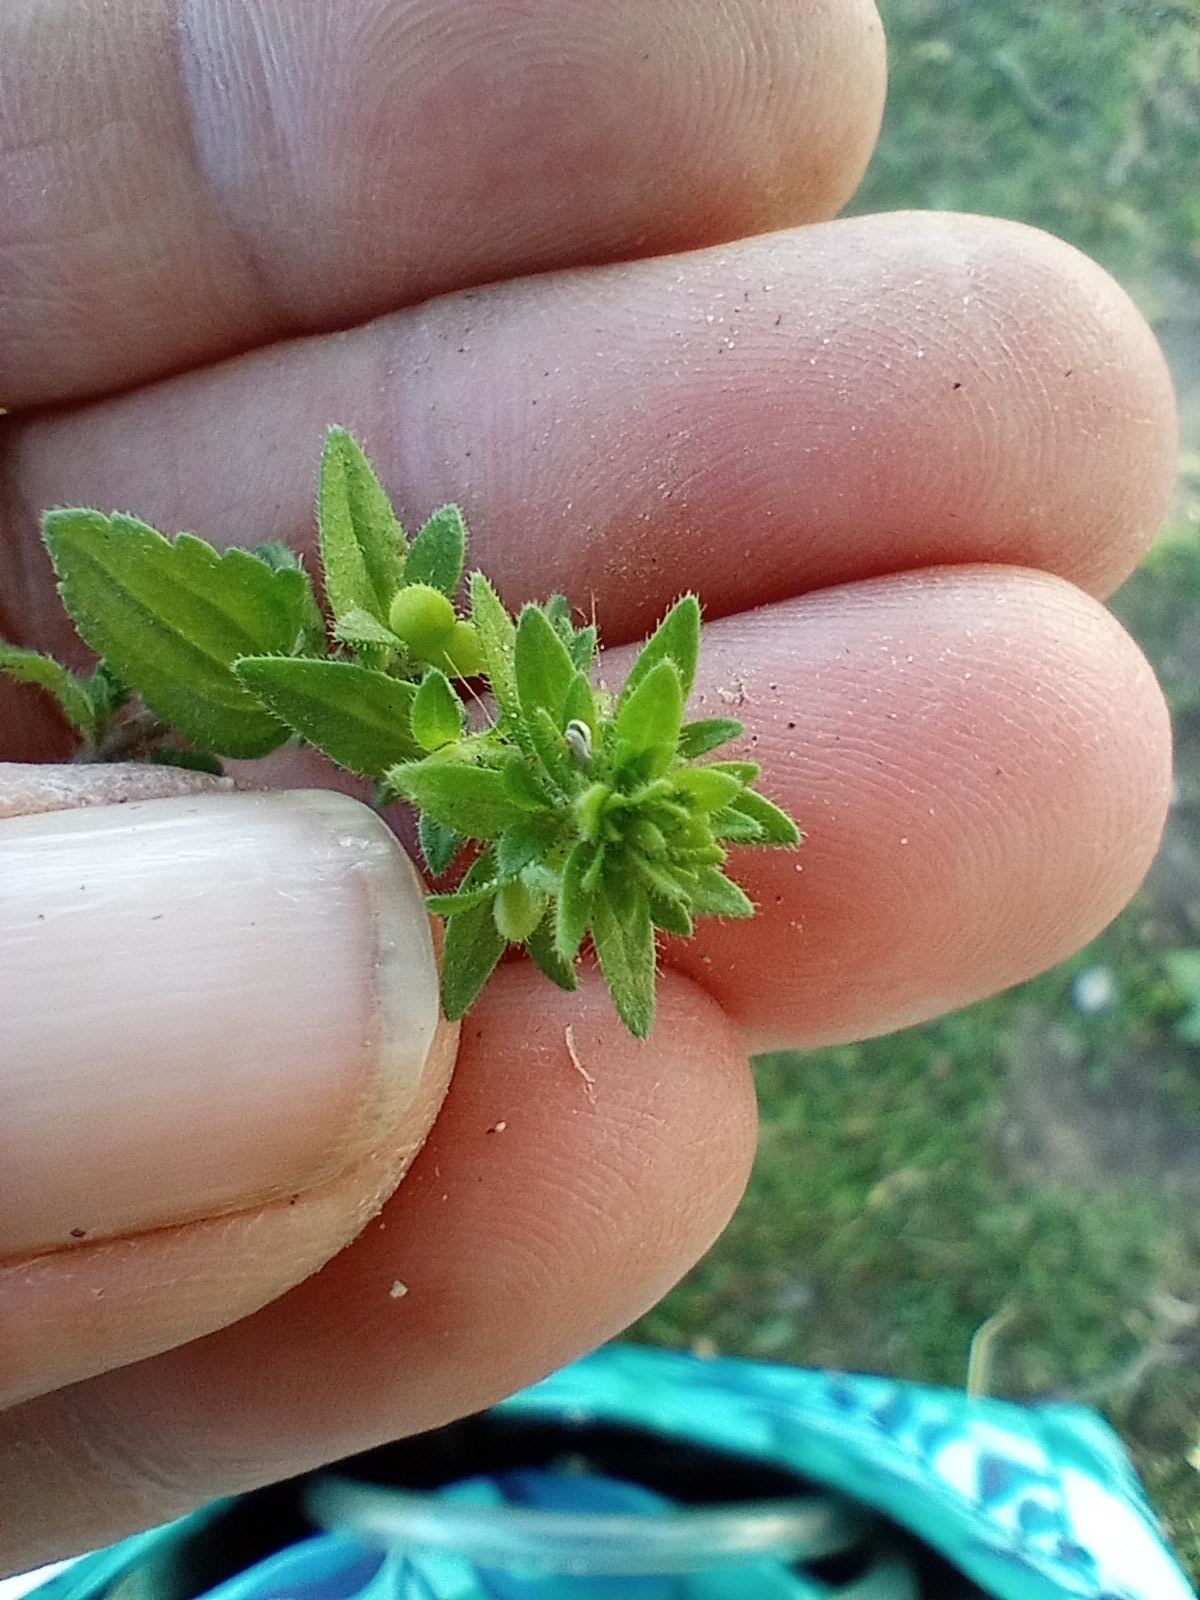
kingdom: Plantae
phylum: Tracheophyta
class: Magnoliopsida
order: Lamiales
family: Plantaginaceae
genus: Veronica
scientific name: Veronica arvensis
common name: Corn speedwell
